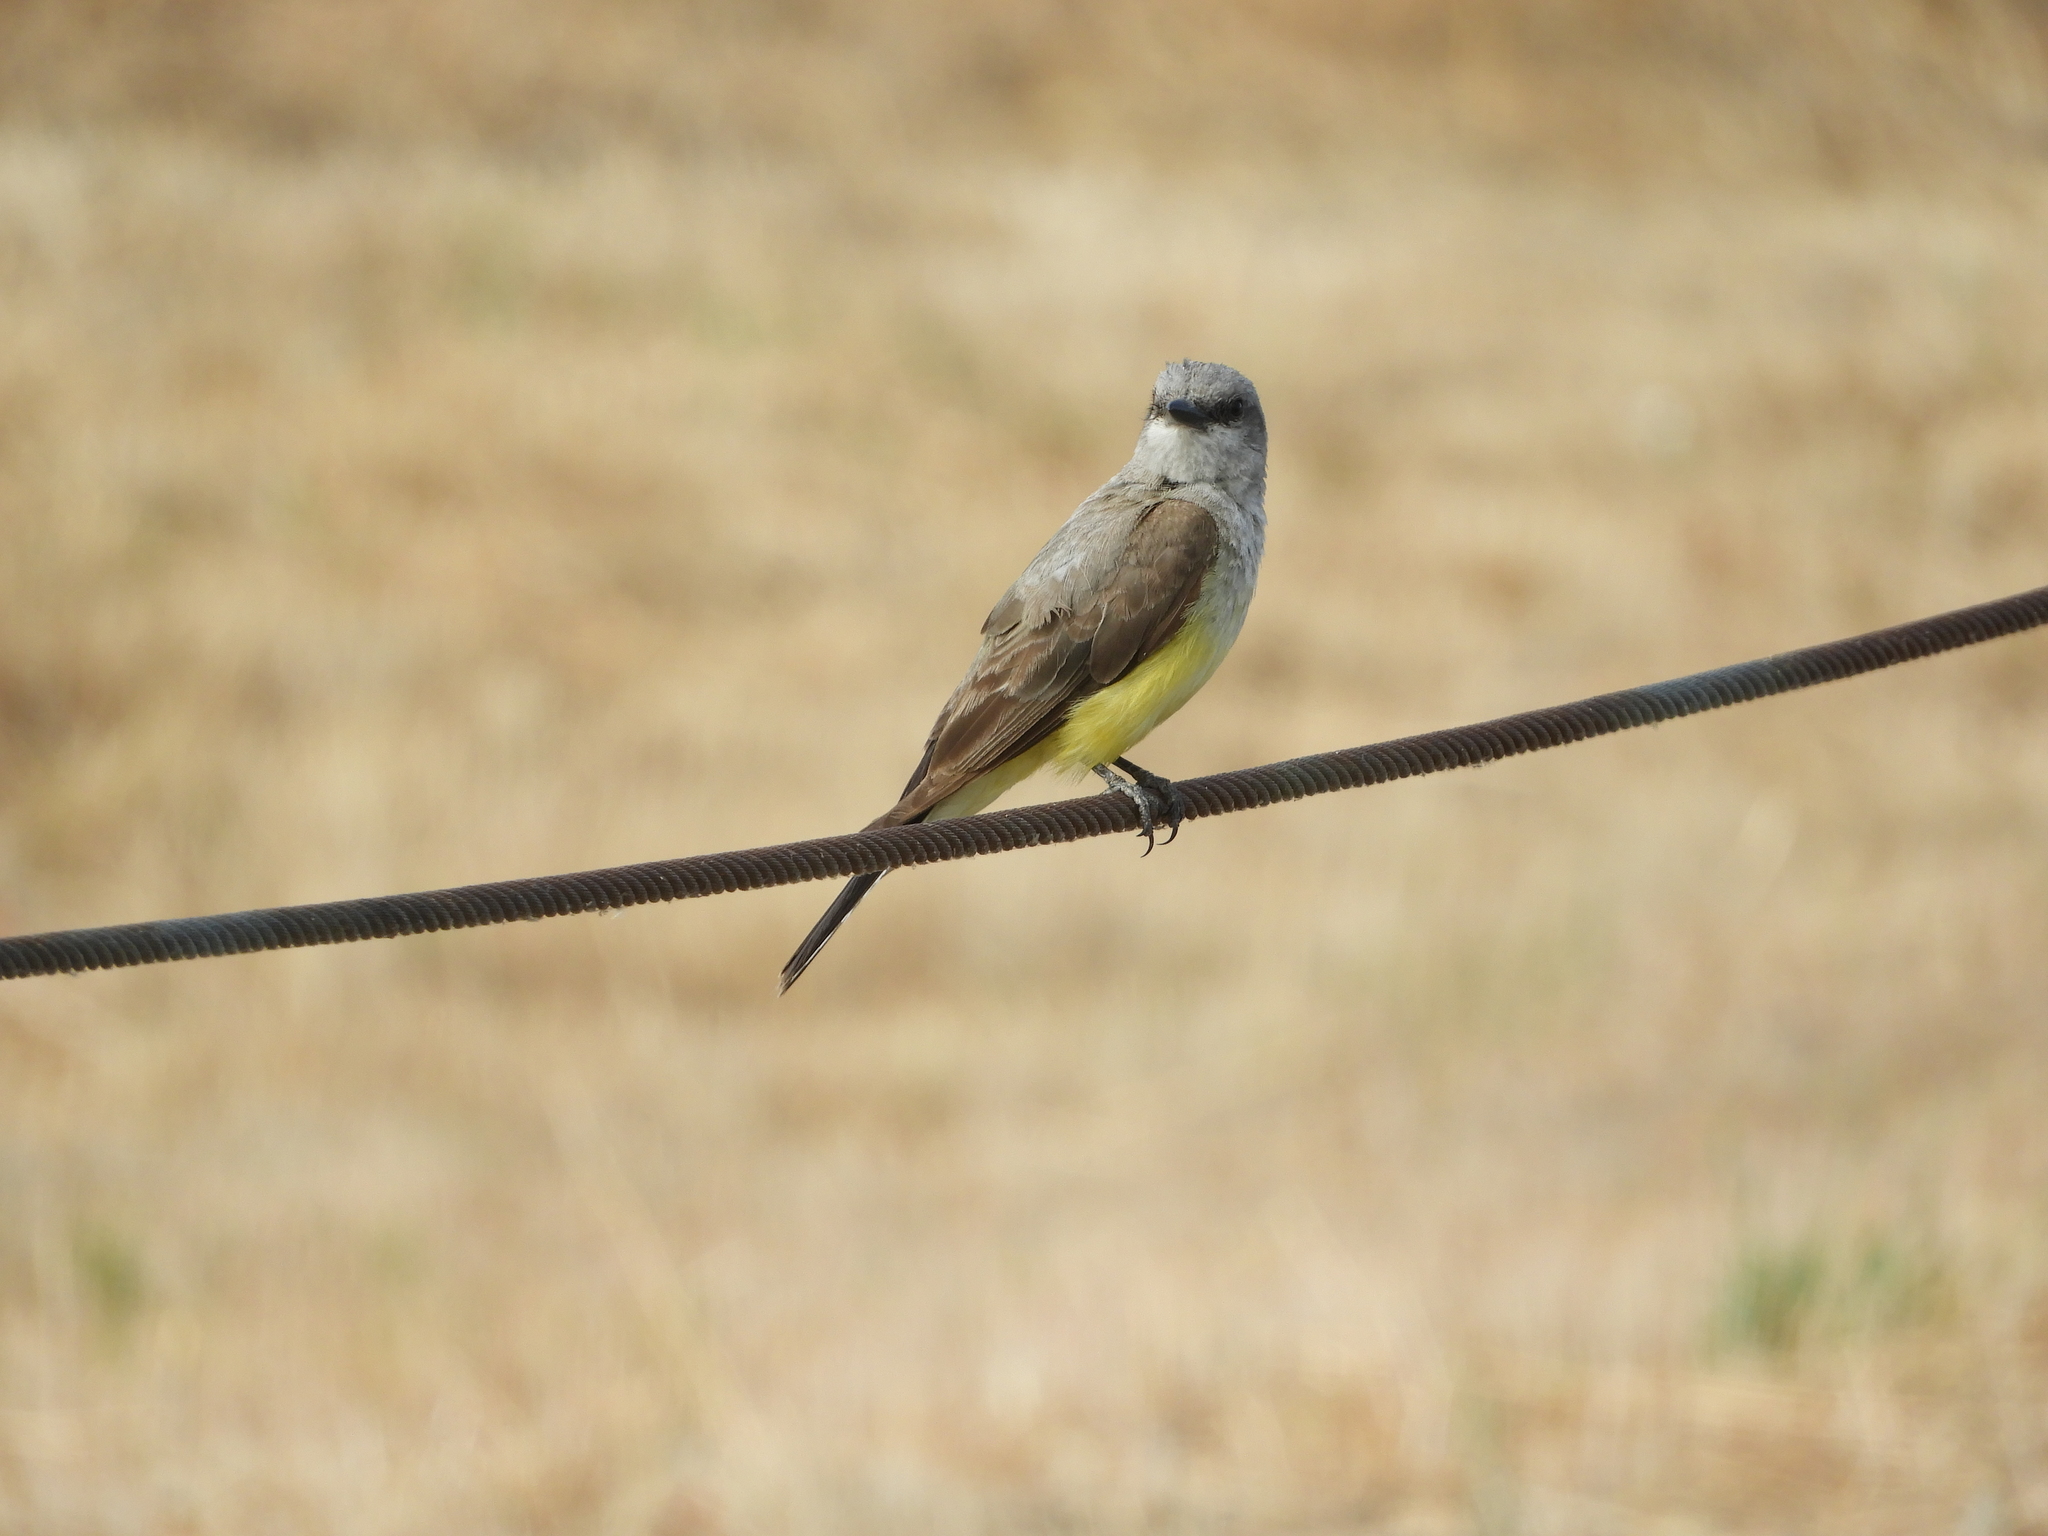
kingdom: Animalia
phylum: Chordata
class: Aves
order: Passeriformes
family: Tyrannidae
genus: Tyrannus
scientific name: Tyrannus verticalis
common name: Western kingbird
